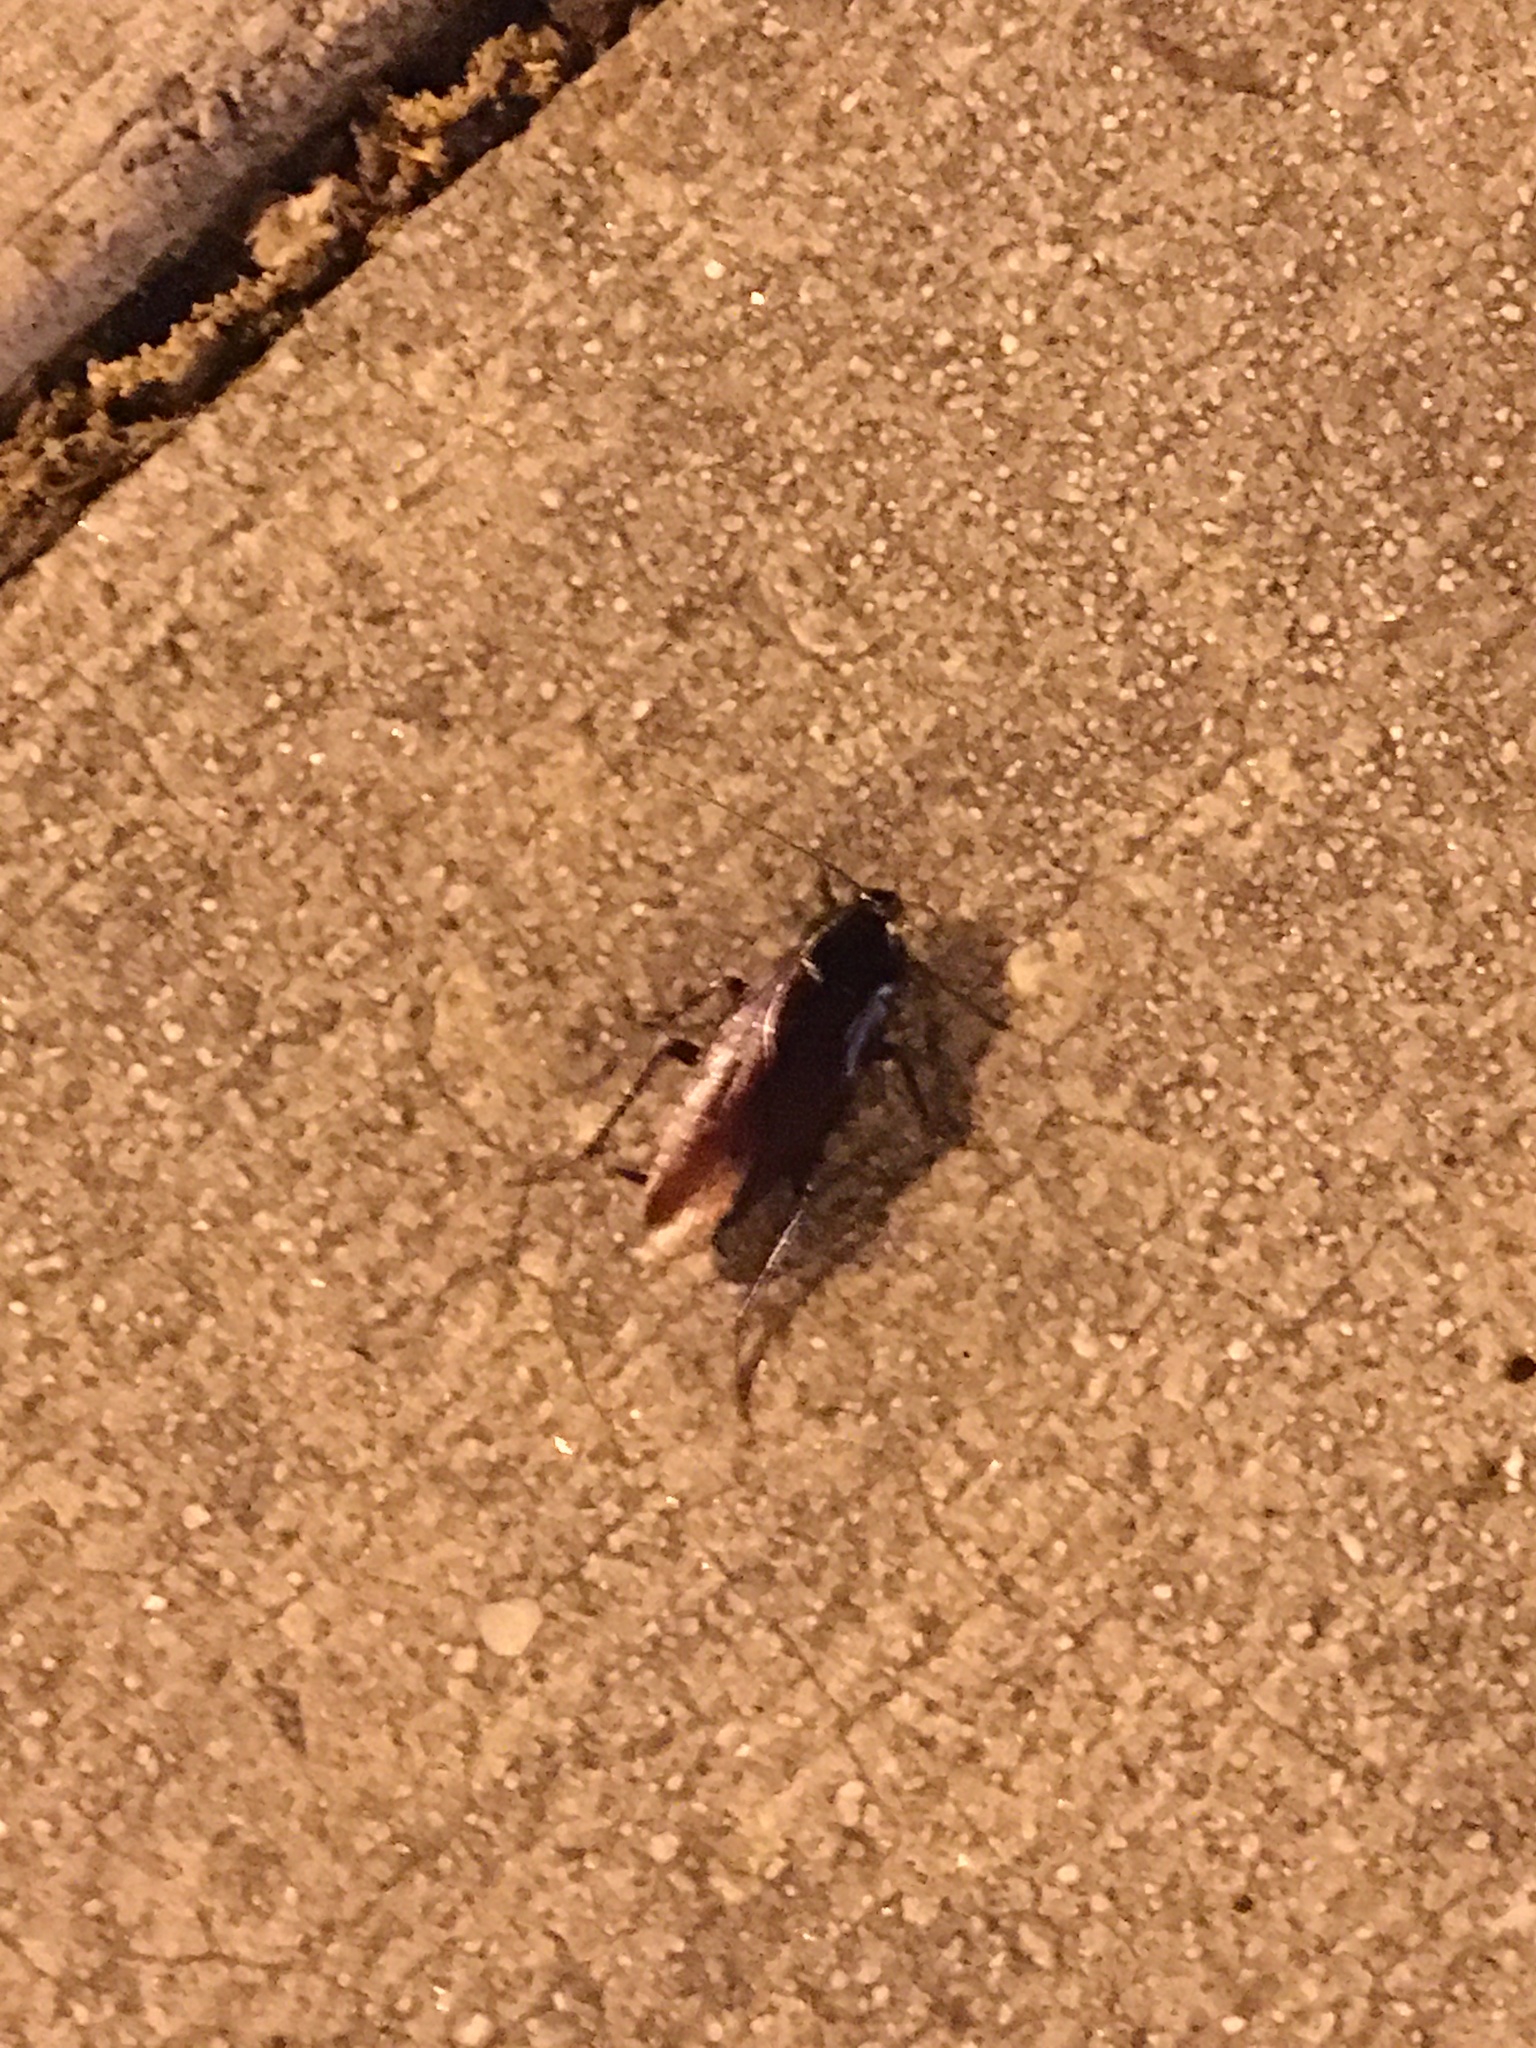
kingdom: Animalia
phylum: Arthropoda
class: Insecta
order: Blattodea
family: Blattidae
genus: Periplaneta
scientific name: Periplaneta fuliginosa
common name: Smokeybrown cockroad
